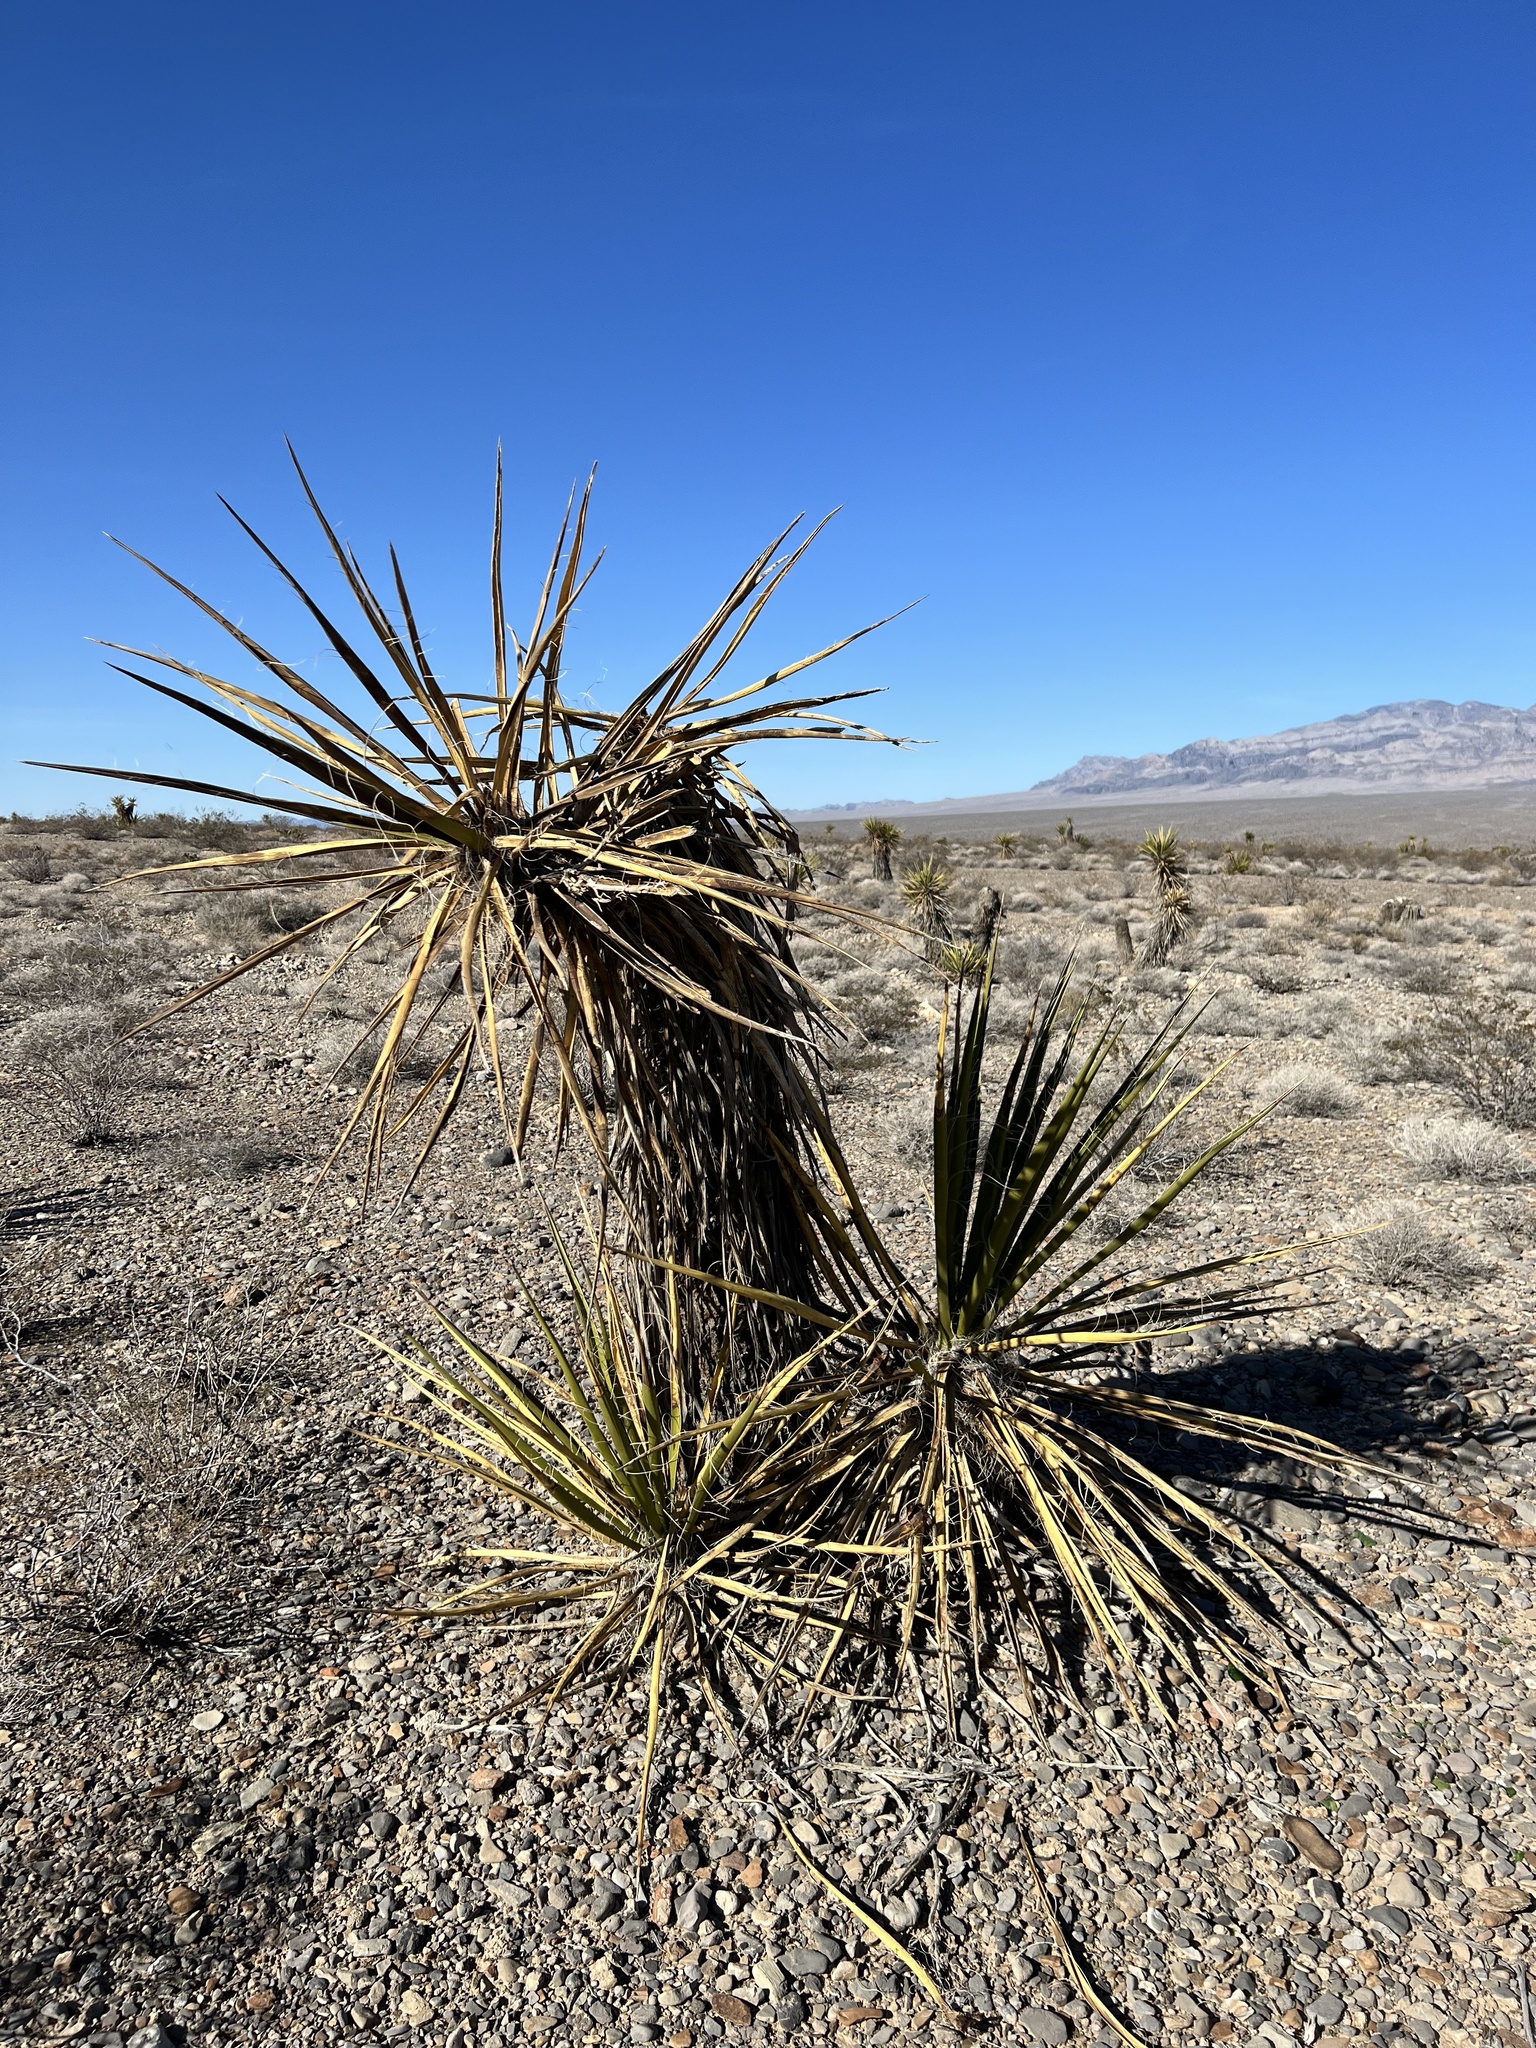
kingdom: Plantae
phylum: Tracheophyta
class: Liliopsida
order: Asparagales
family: Asparagaceae
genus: Yucca
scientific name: Yucca schidigera
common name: Mojave yucca
